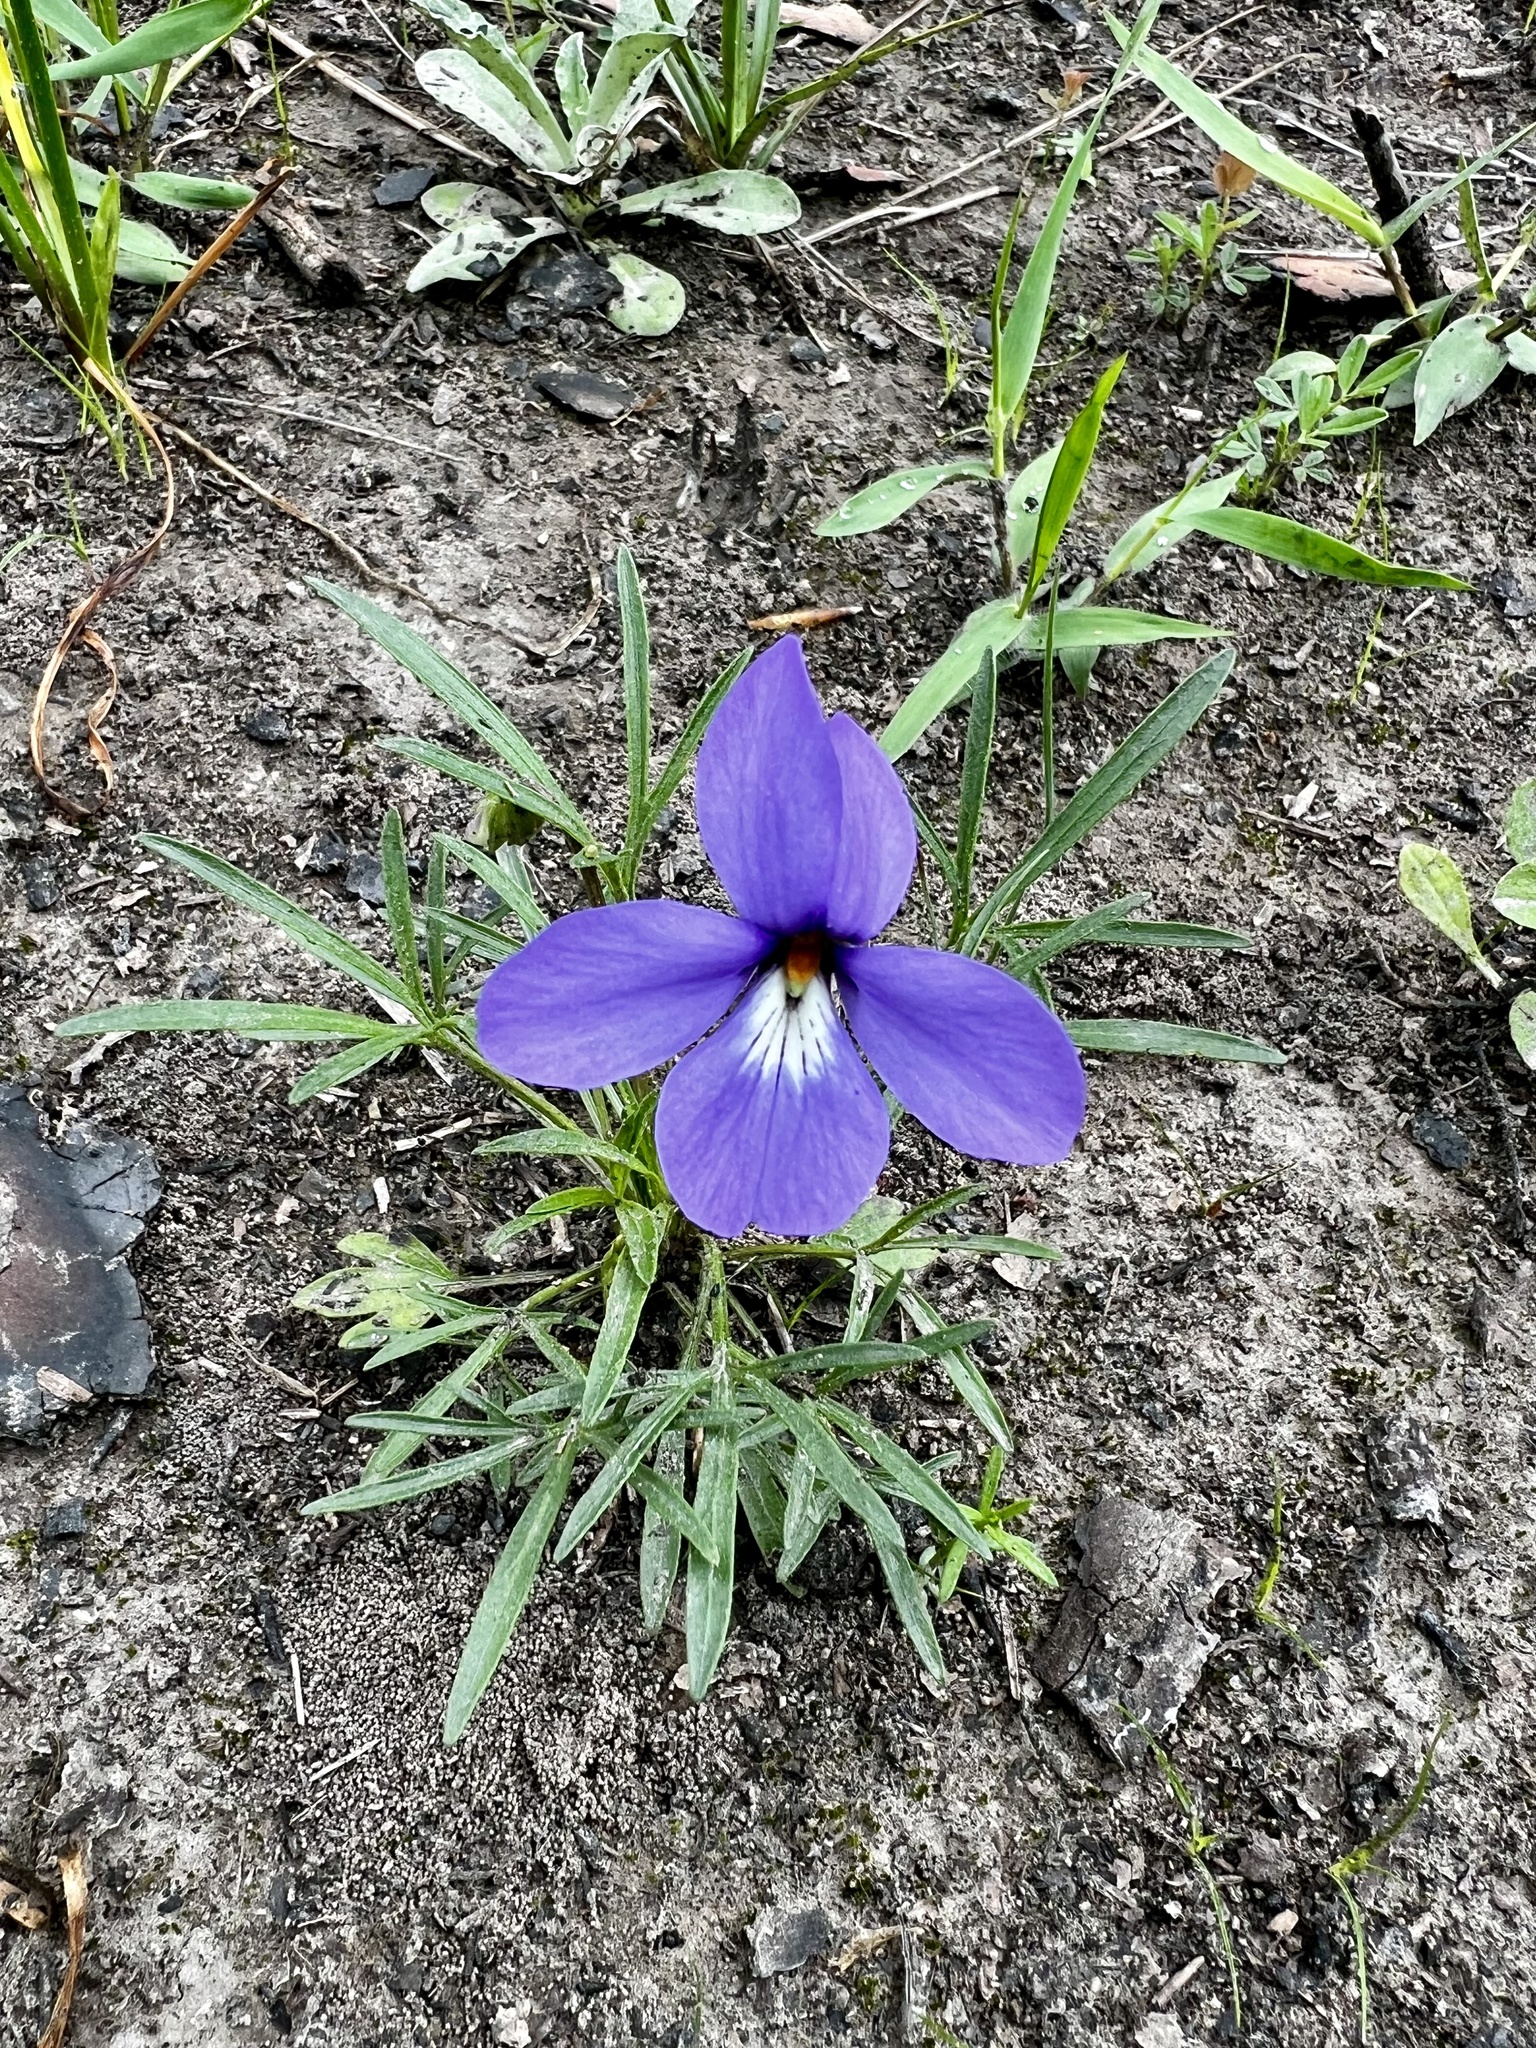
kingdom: Plantae
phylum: Tracheophyta
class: Magnoliopsida
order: Malpighiales
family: Violaceae
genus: Viola
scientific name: Viola pedata
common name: Pansy violet
